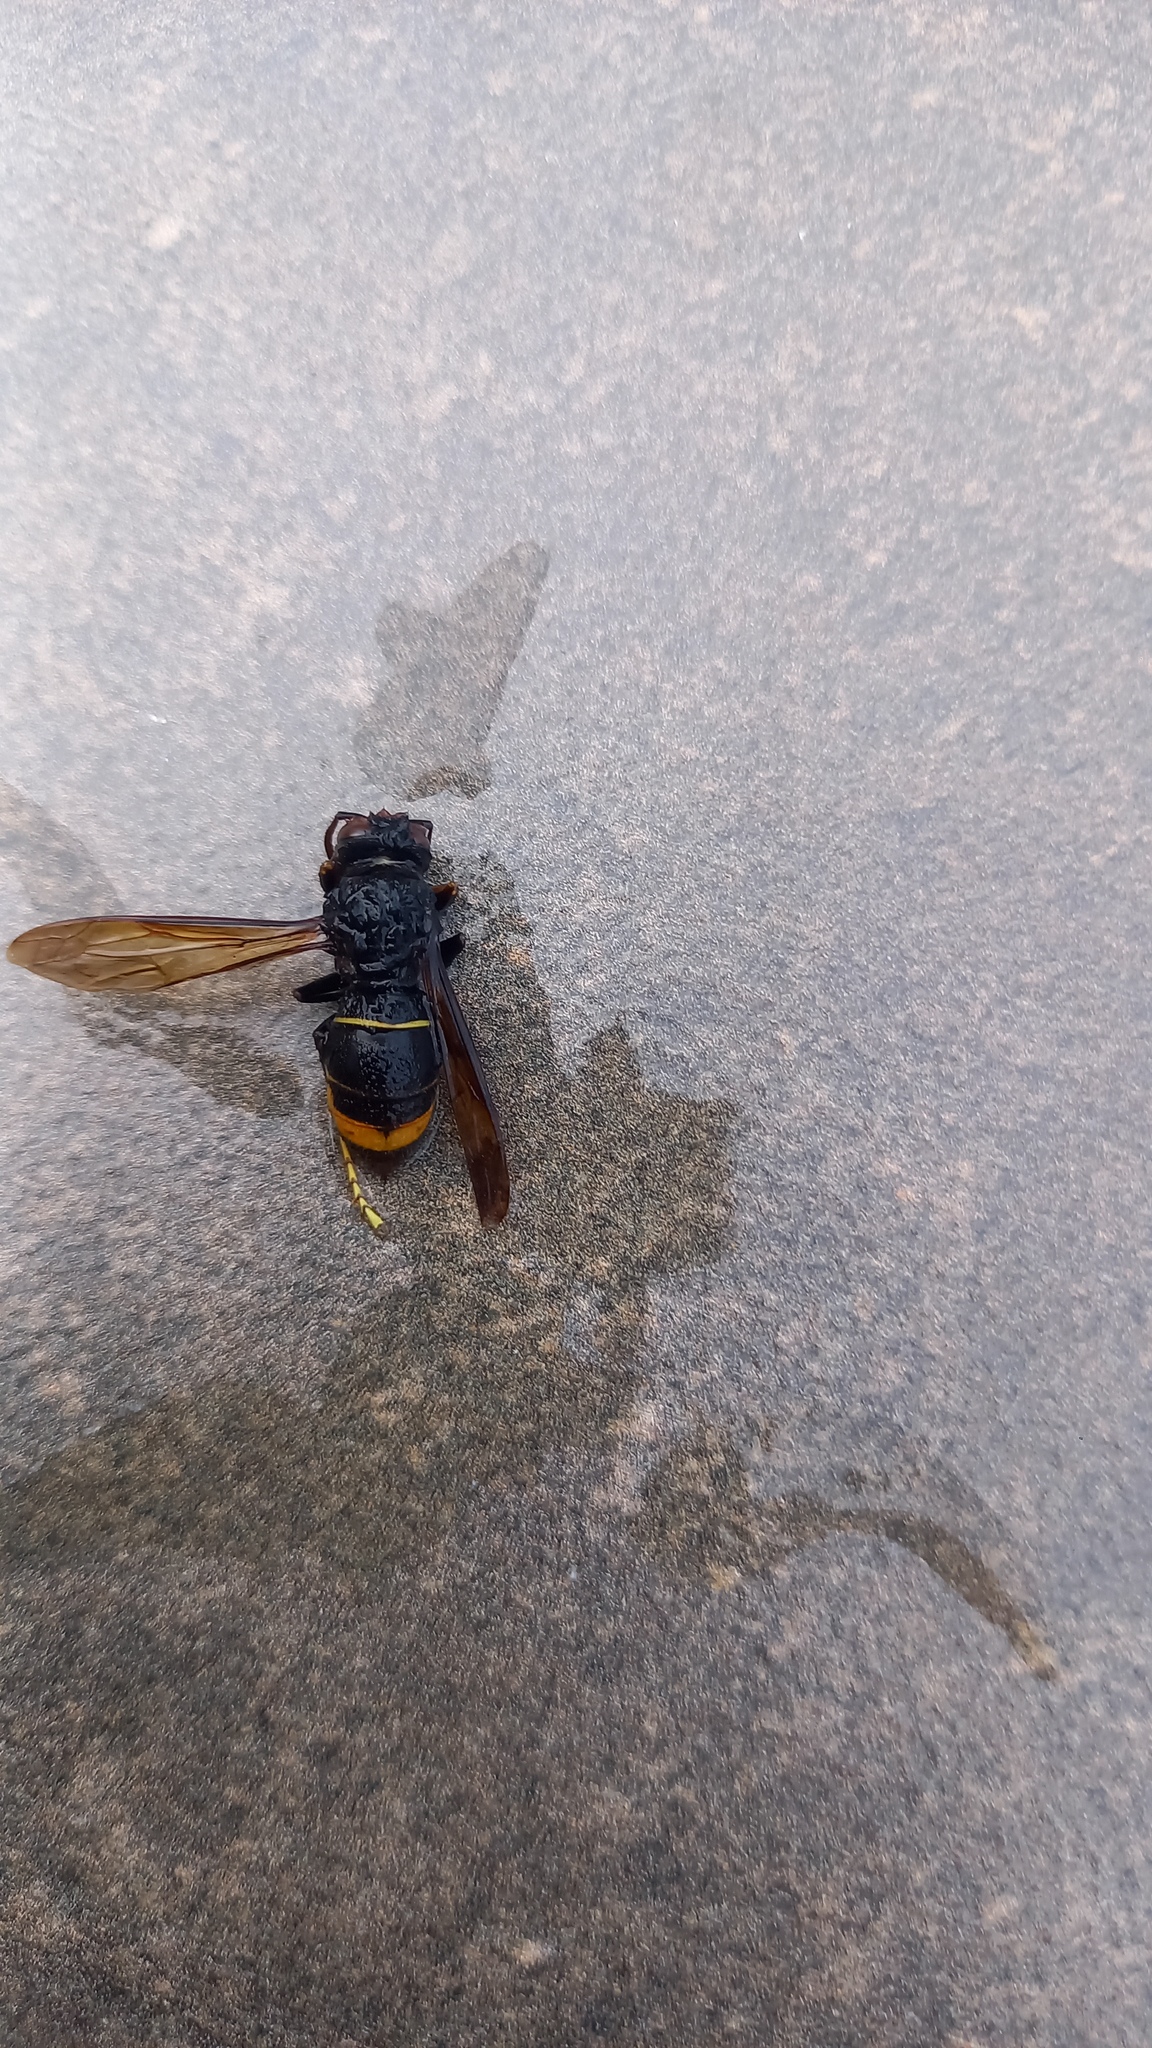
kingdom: Animalia
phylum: Arthropoda
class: Insecta
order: Hymenoptera
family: Vespidae
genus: Vespa
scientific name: Vespa velutina
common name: Asian hornet
